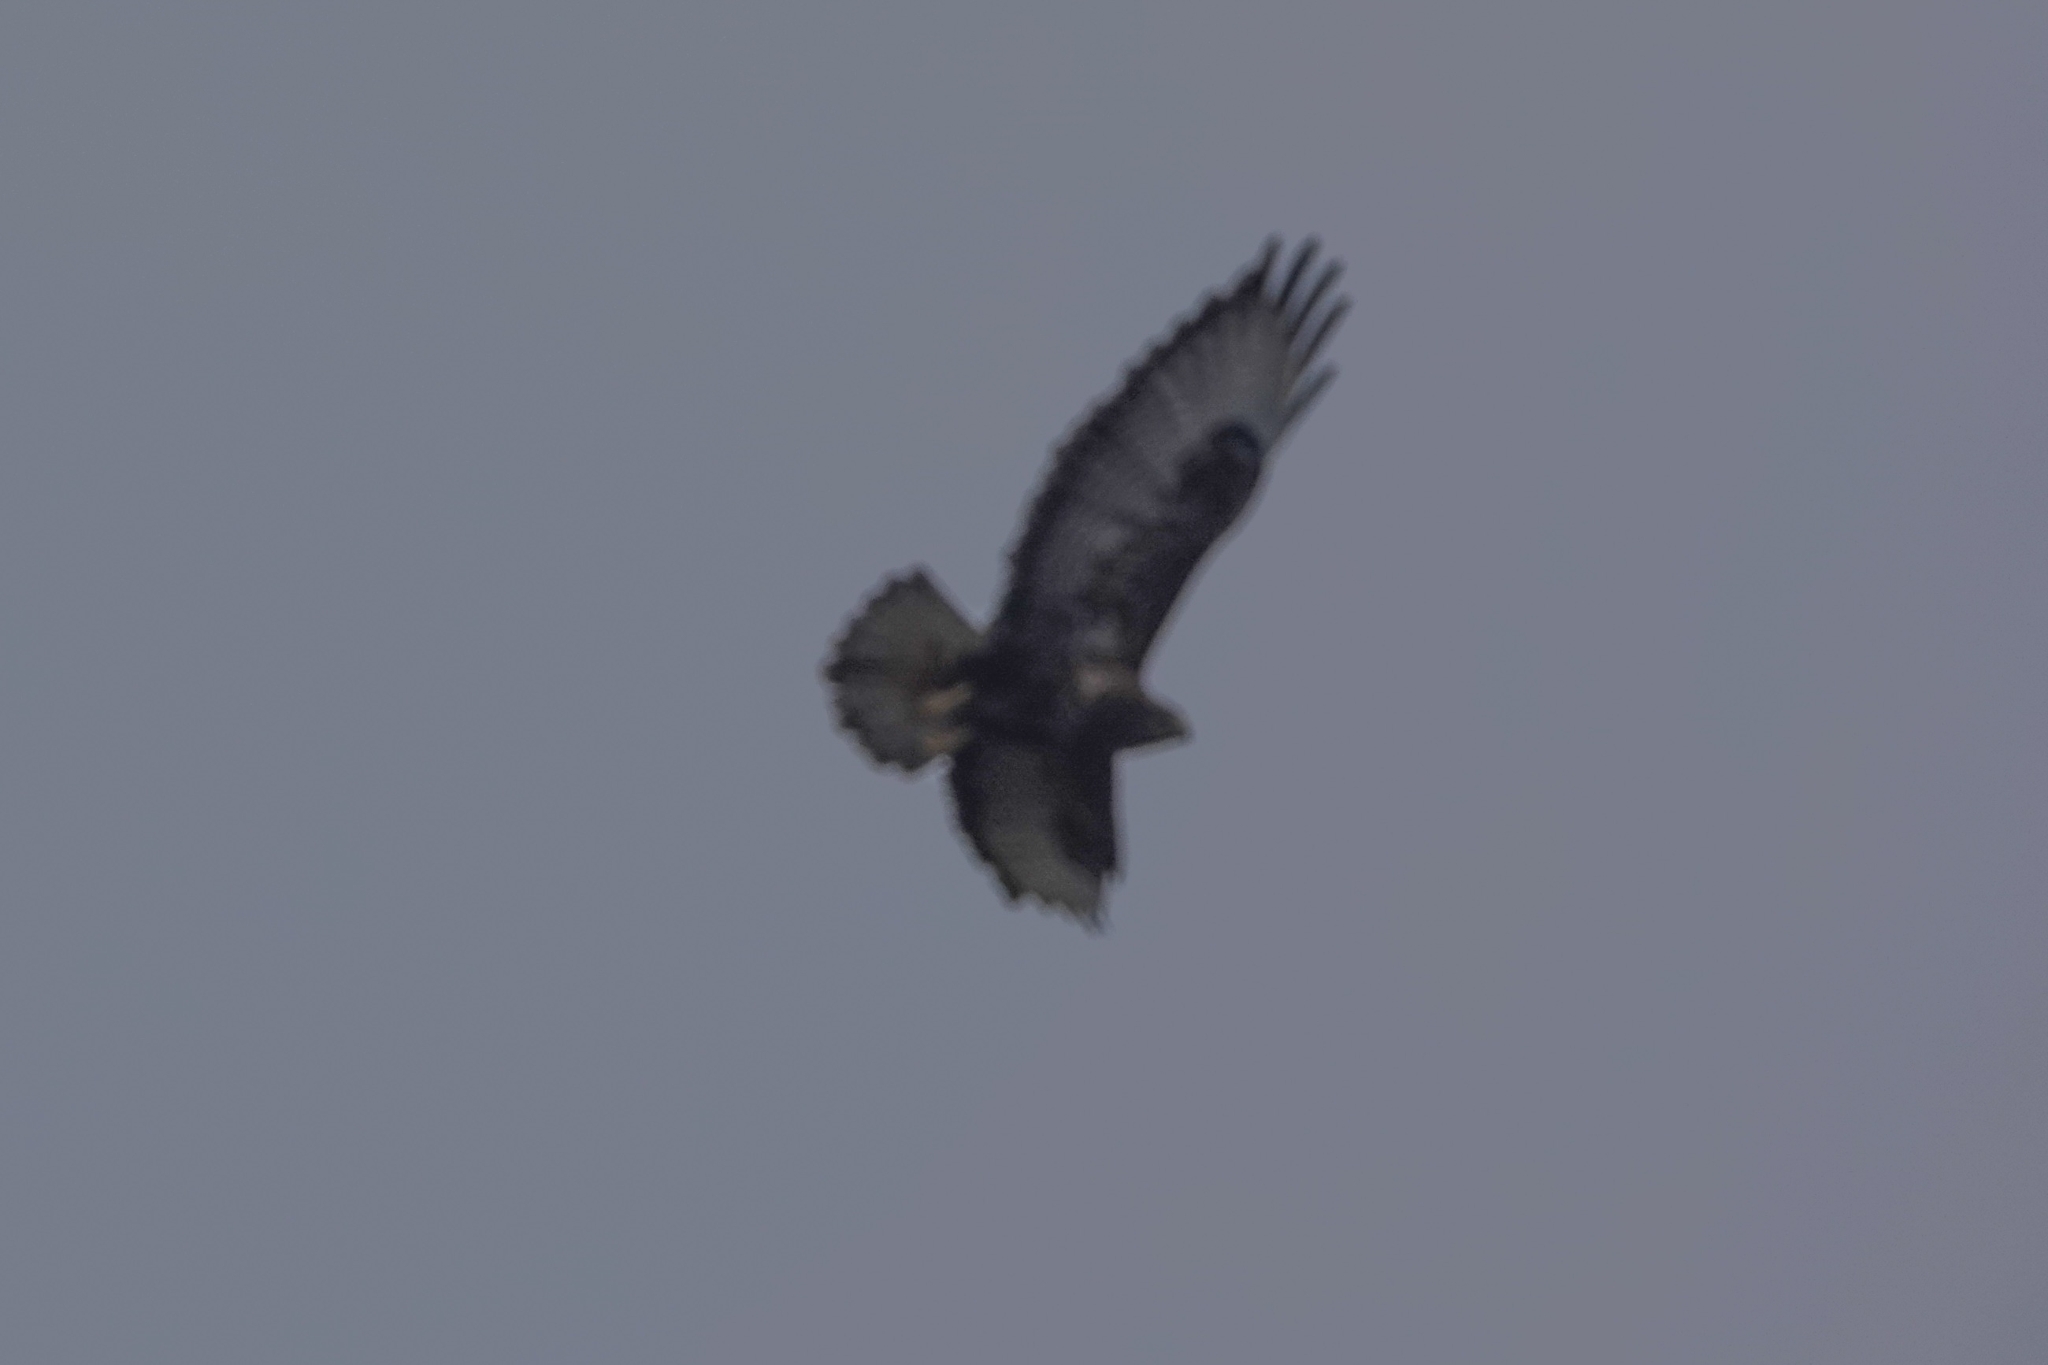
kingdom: Animalia
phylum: Chordata
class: Aves
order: Accipitriformes
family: Accipitridae
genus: Buteo
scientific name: Buteo buteo
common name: Common buzzard
